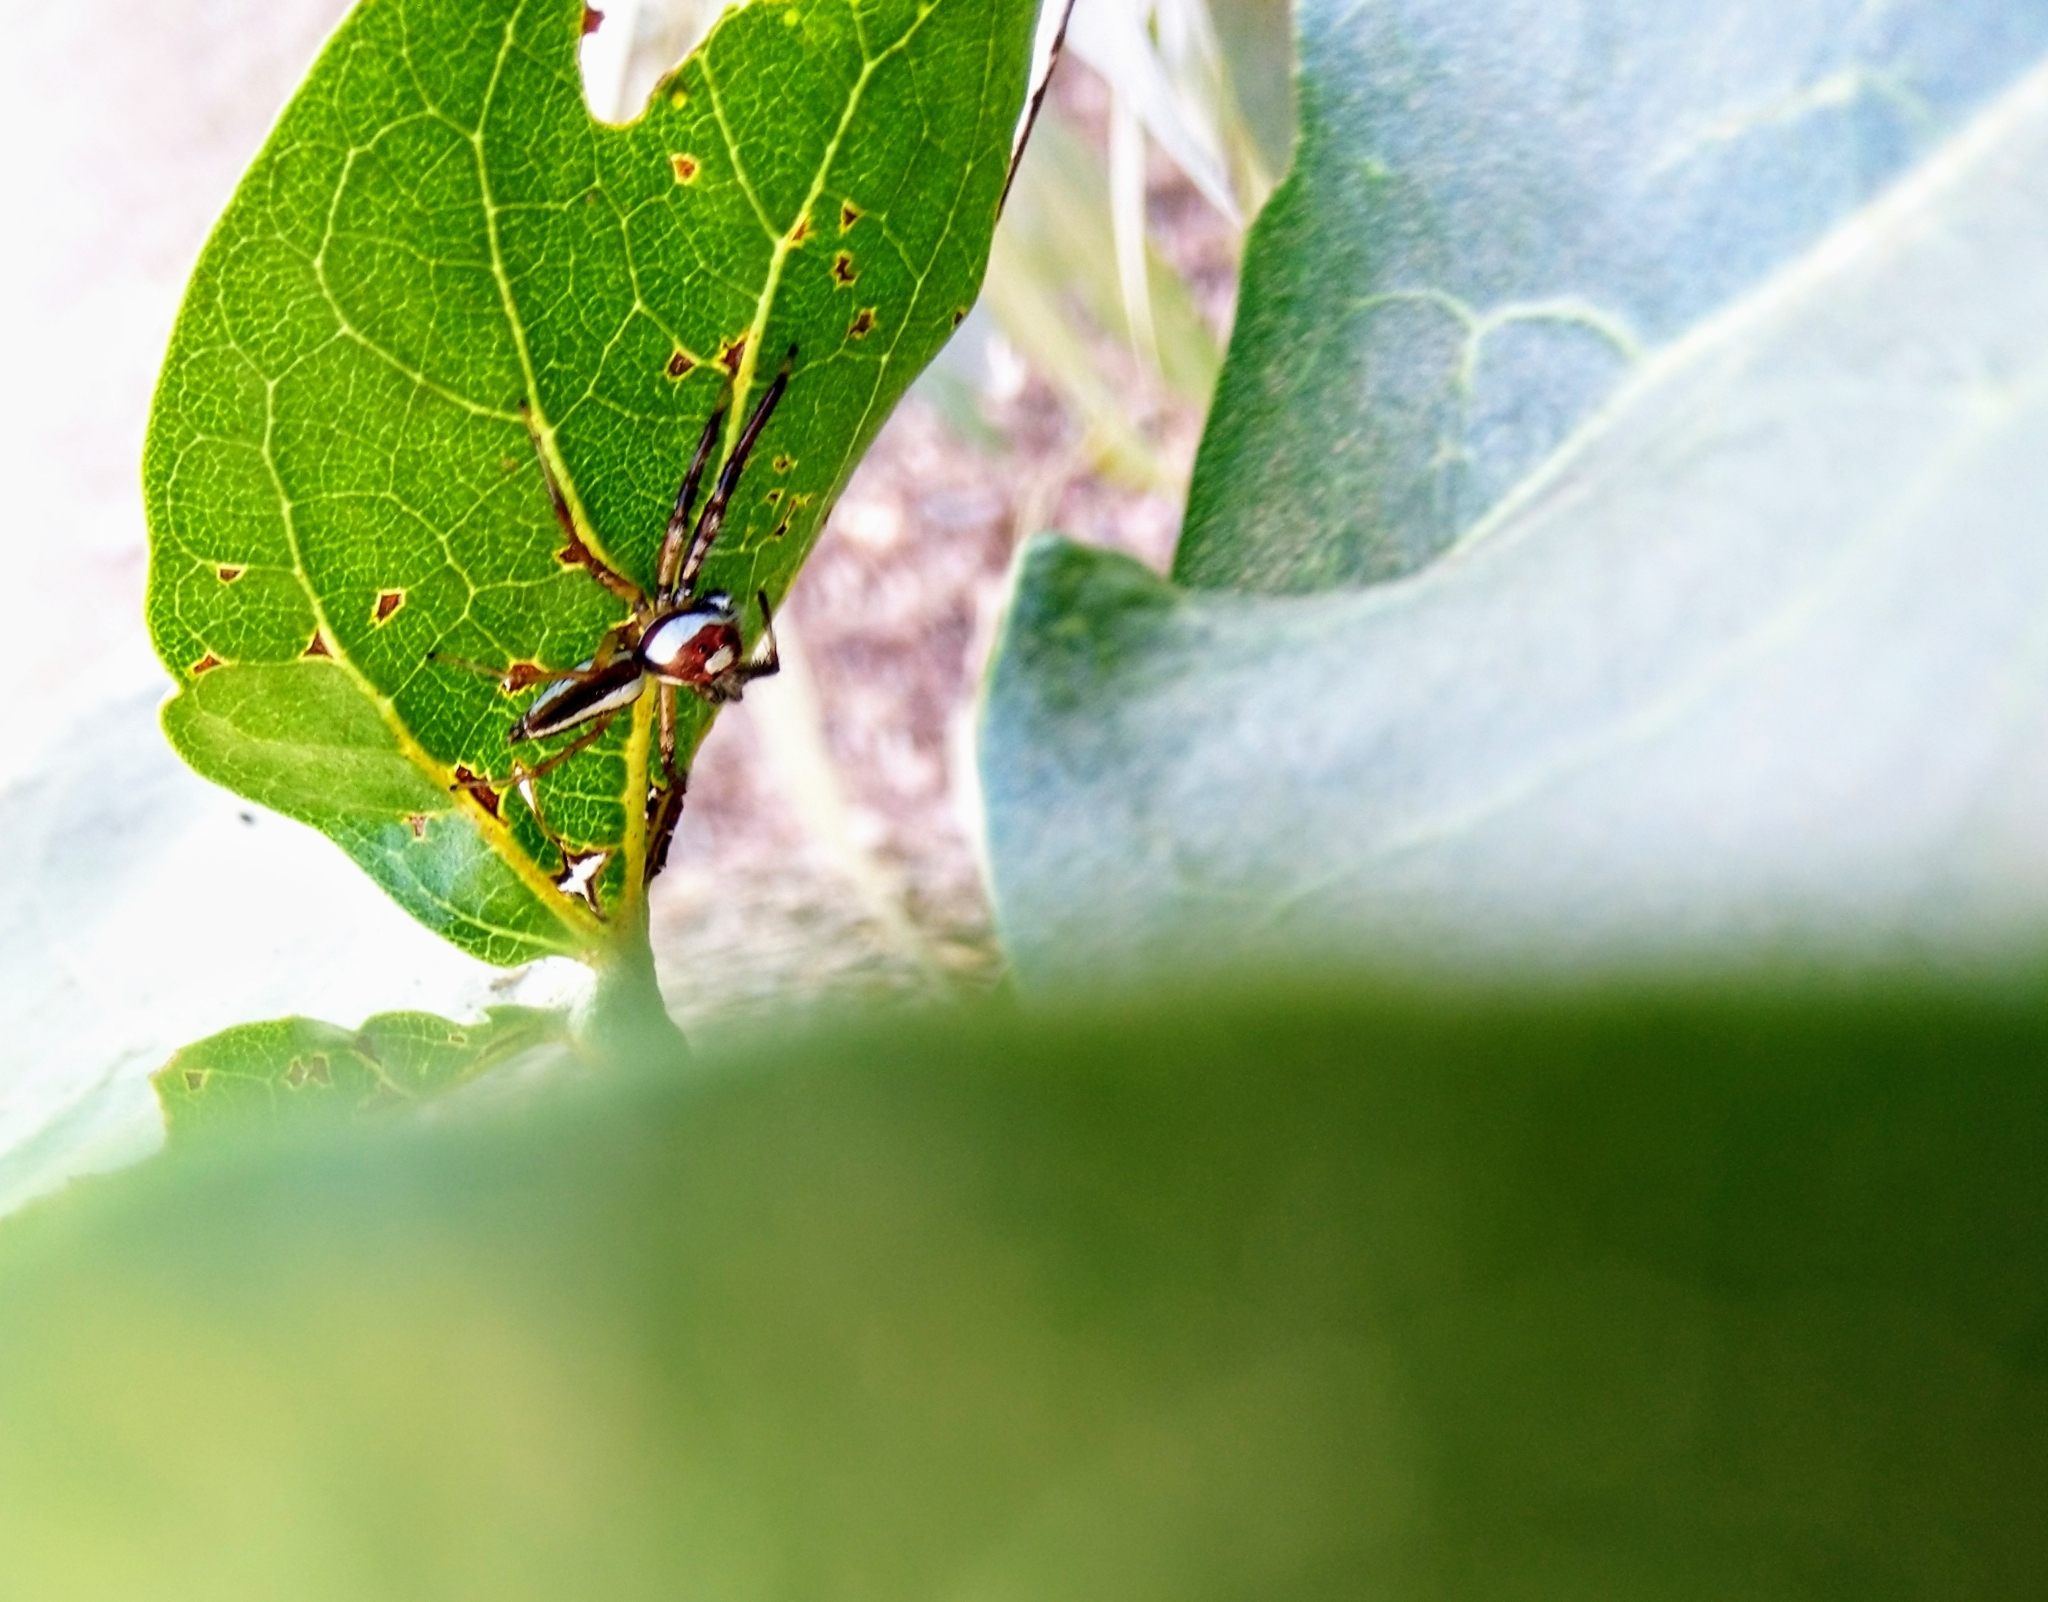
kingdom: Animalia
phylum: Arthropoda
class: Arachnida
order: Araneae
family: Salticidae
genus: Telamonia
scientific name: Telamonia dimidiata
